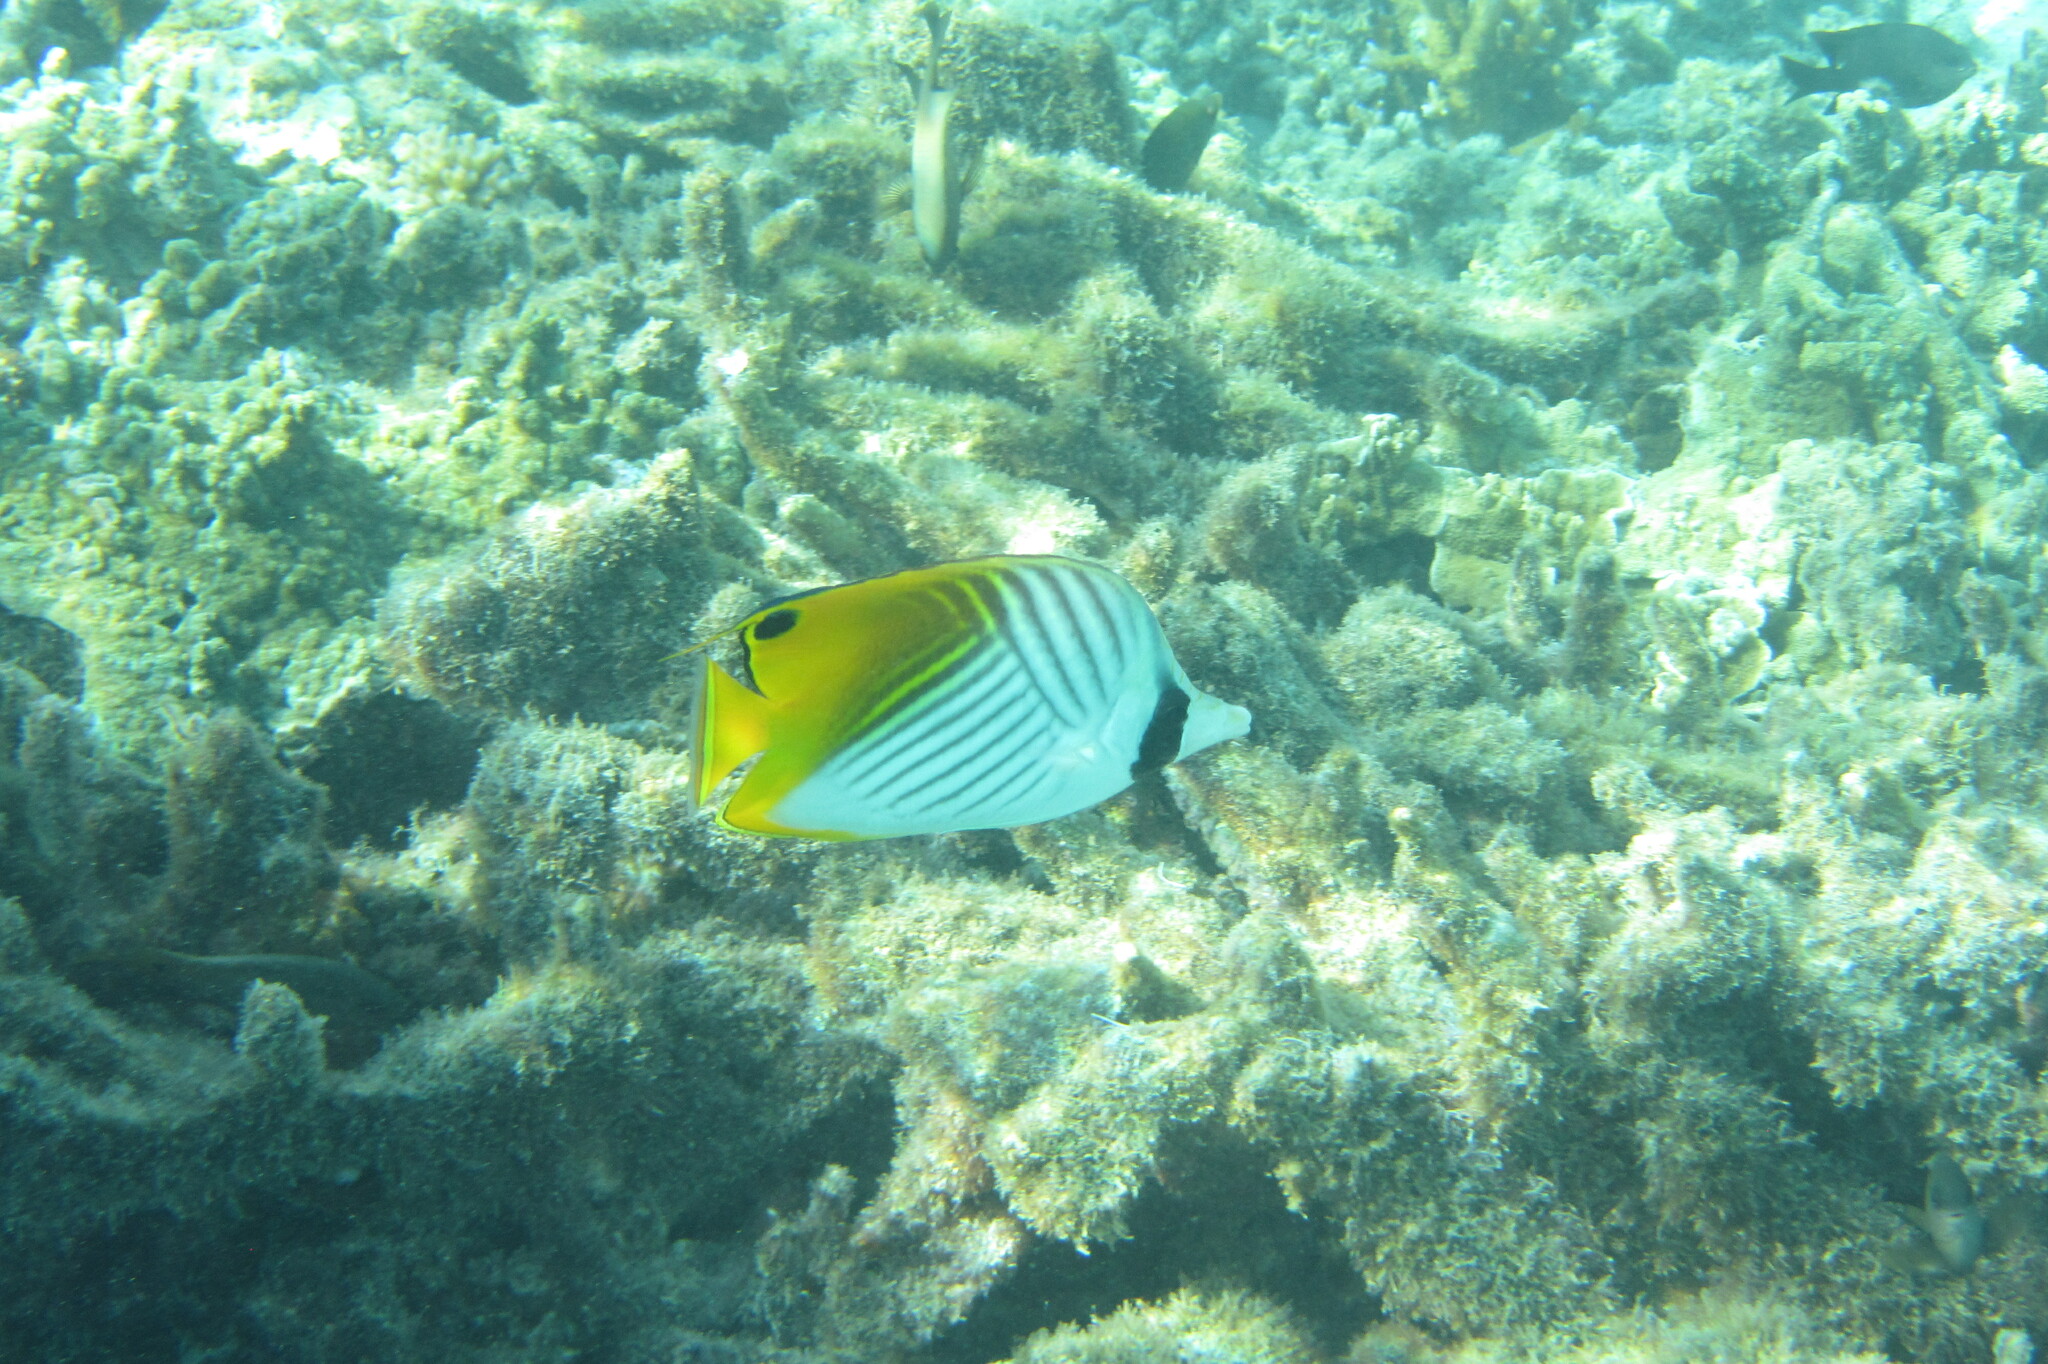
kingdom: Animalia
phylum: Chordata
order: Perciformes
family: Chaetodontidae
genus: Chaetodon
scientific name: Chaetodon auriga
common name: Threadfin butterflyfish
